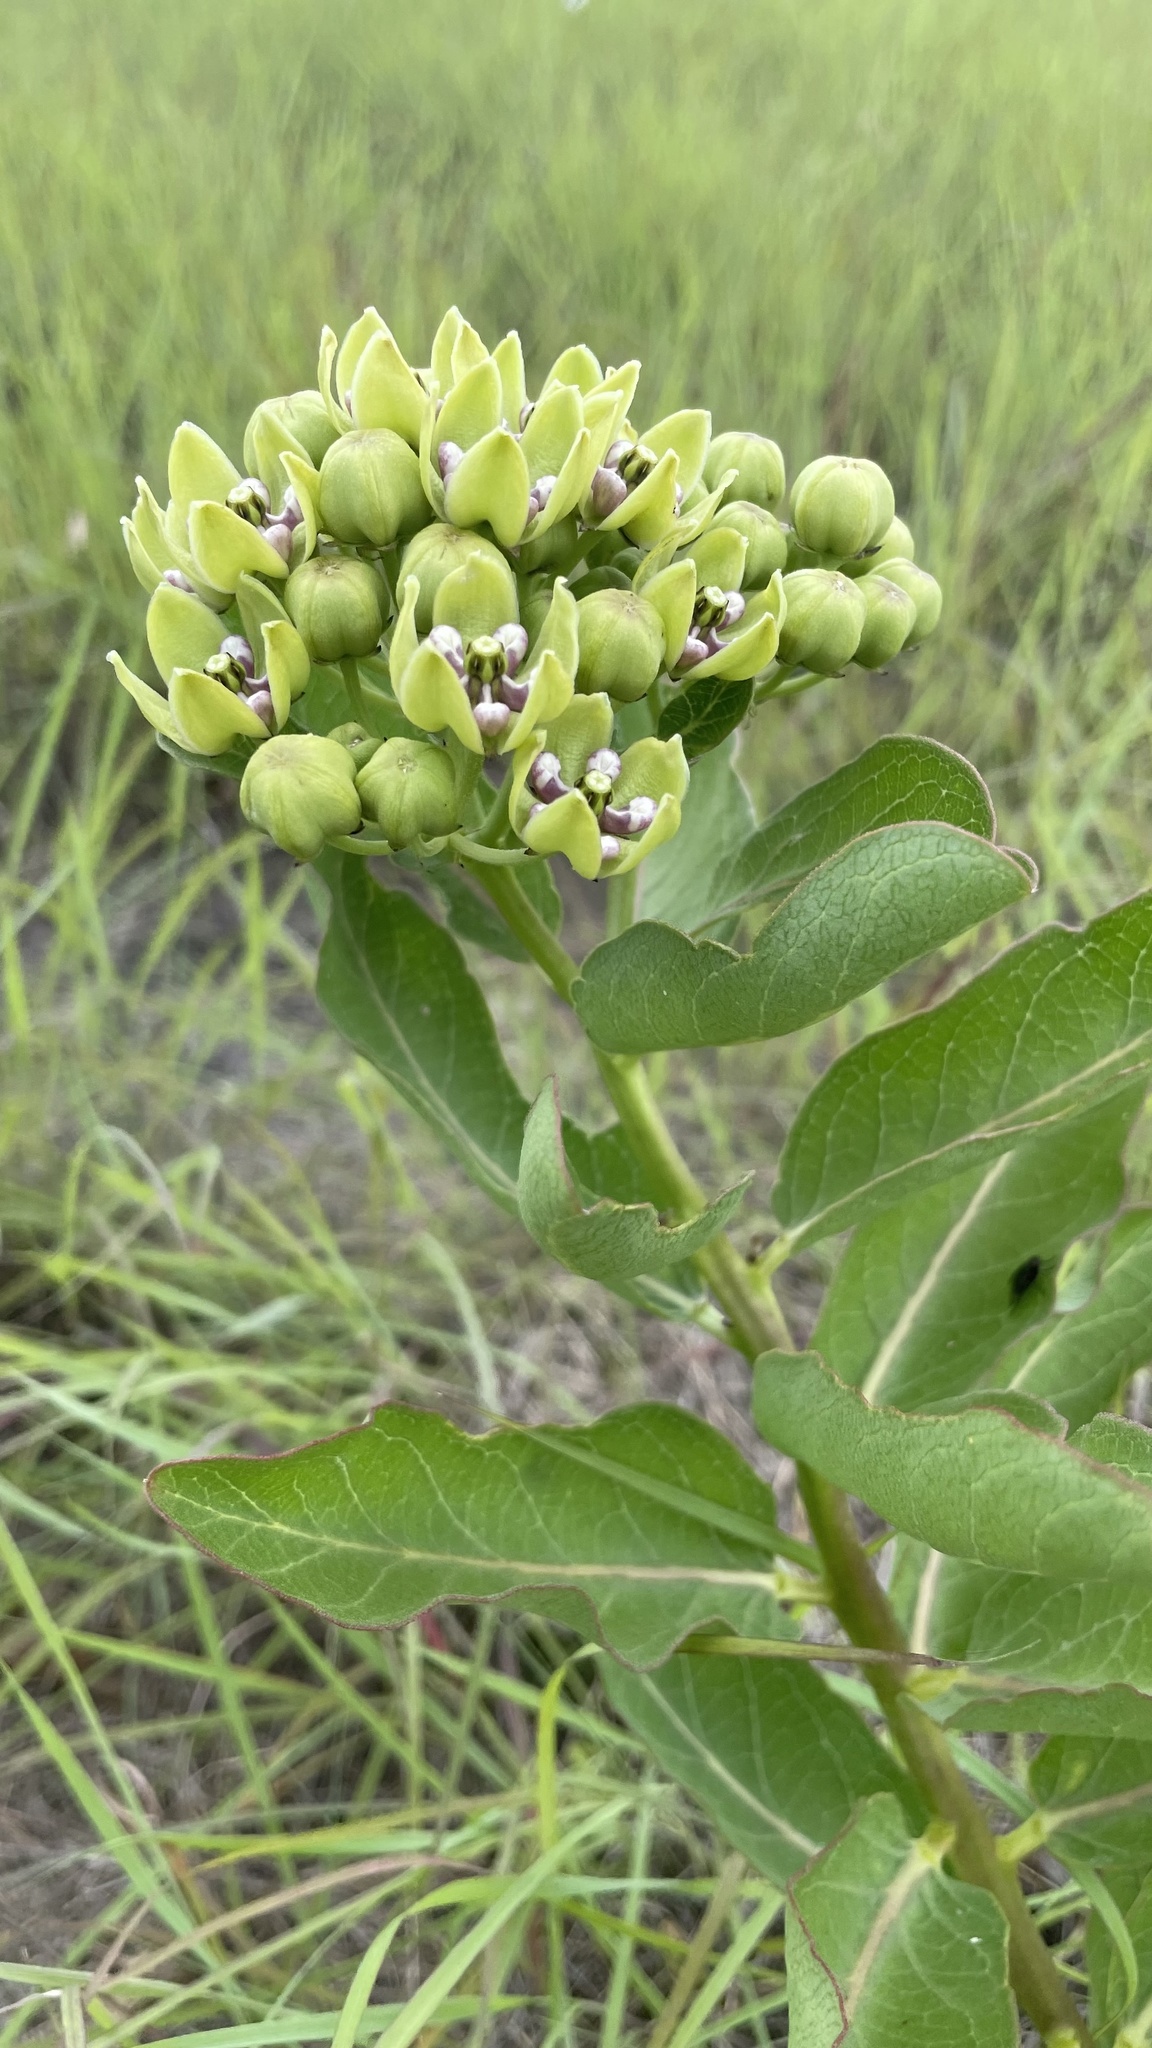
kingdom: Plantae
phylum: Tracheophyta
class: Magnoliopsida
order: Gentianales
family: Apocynaceae
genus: Asclepias
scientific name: Asclepias viridis
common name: Antelope-horns
